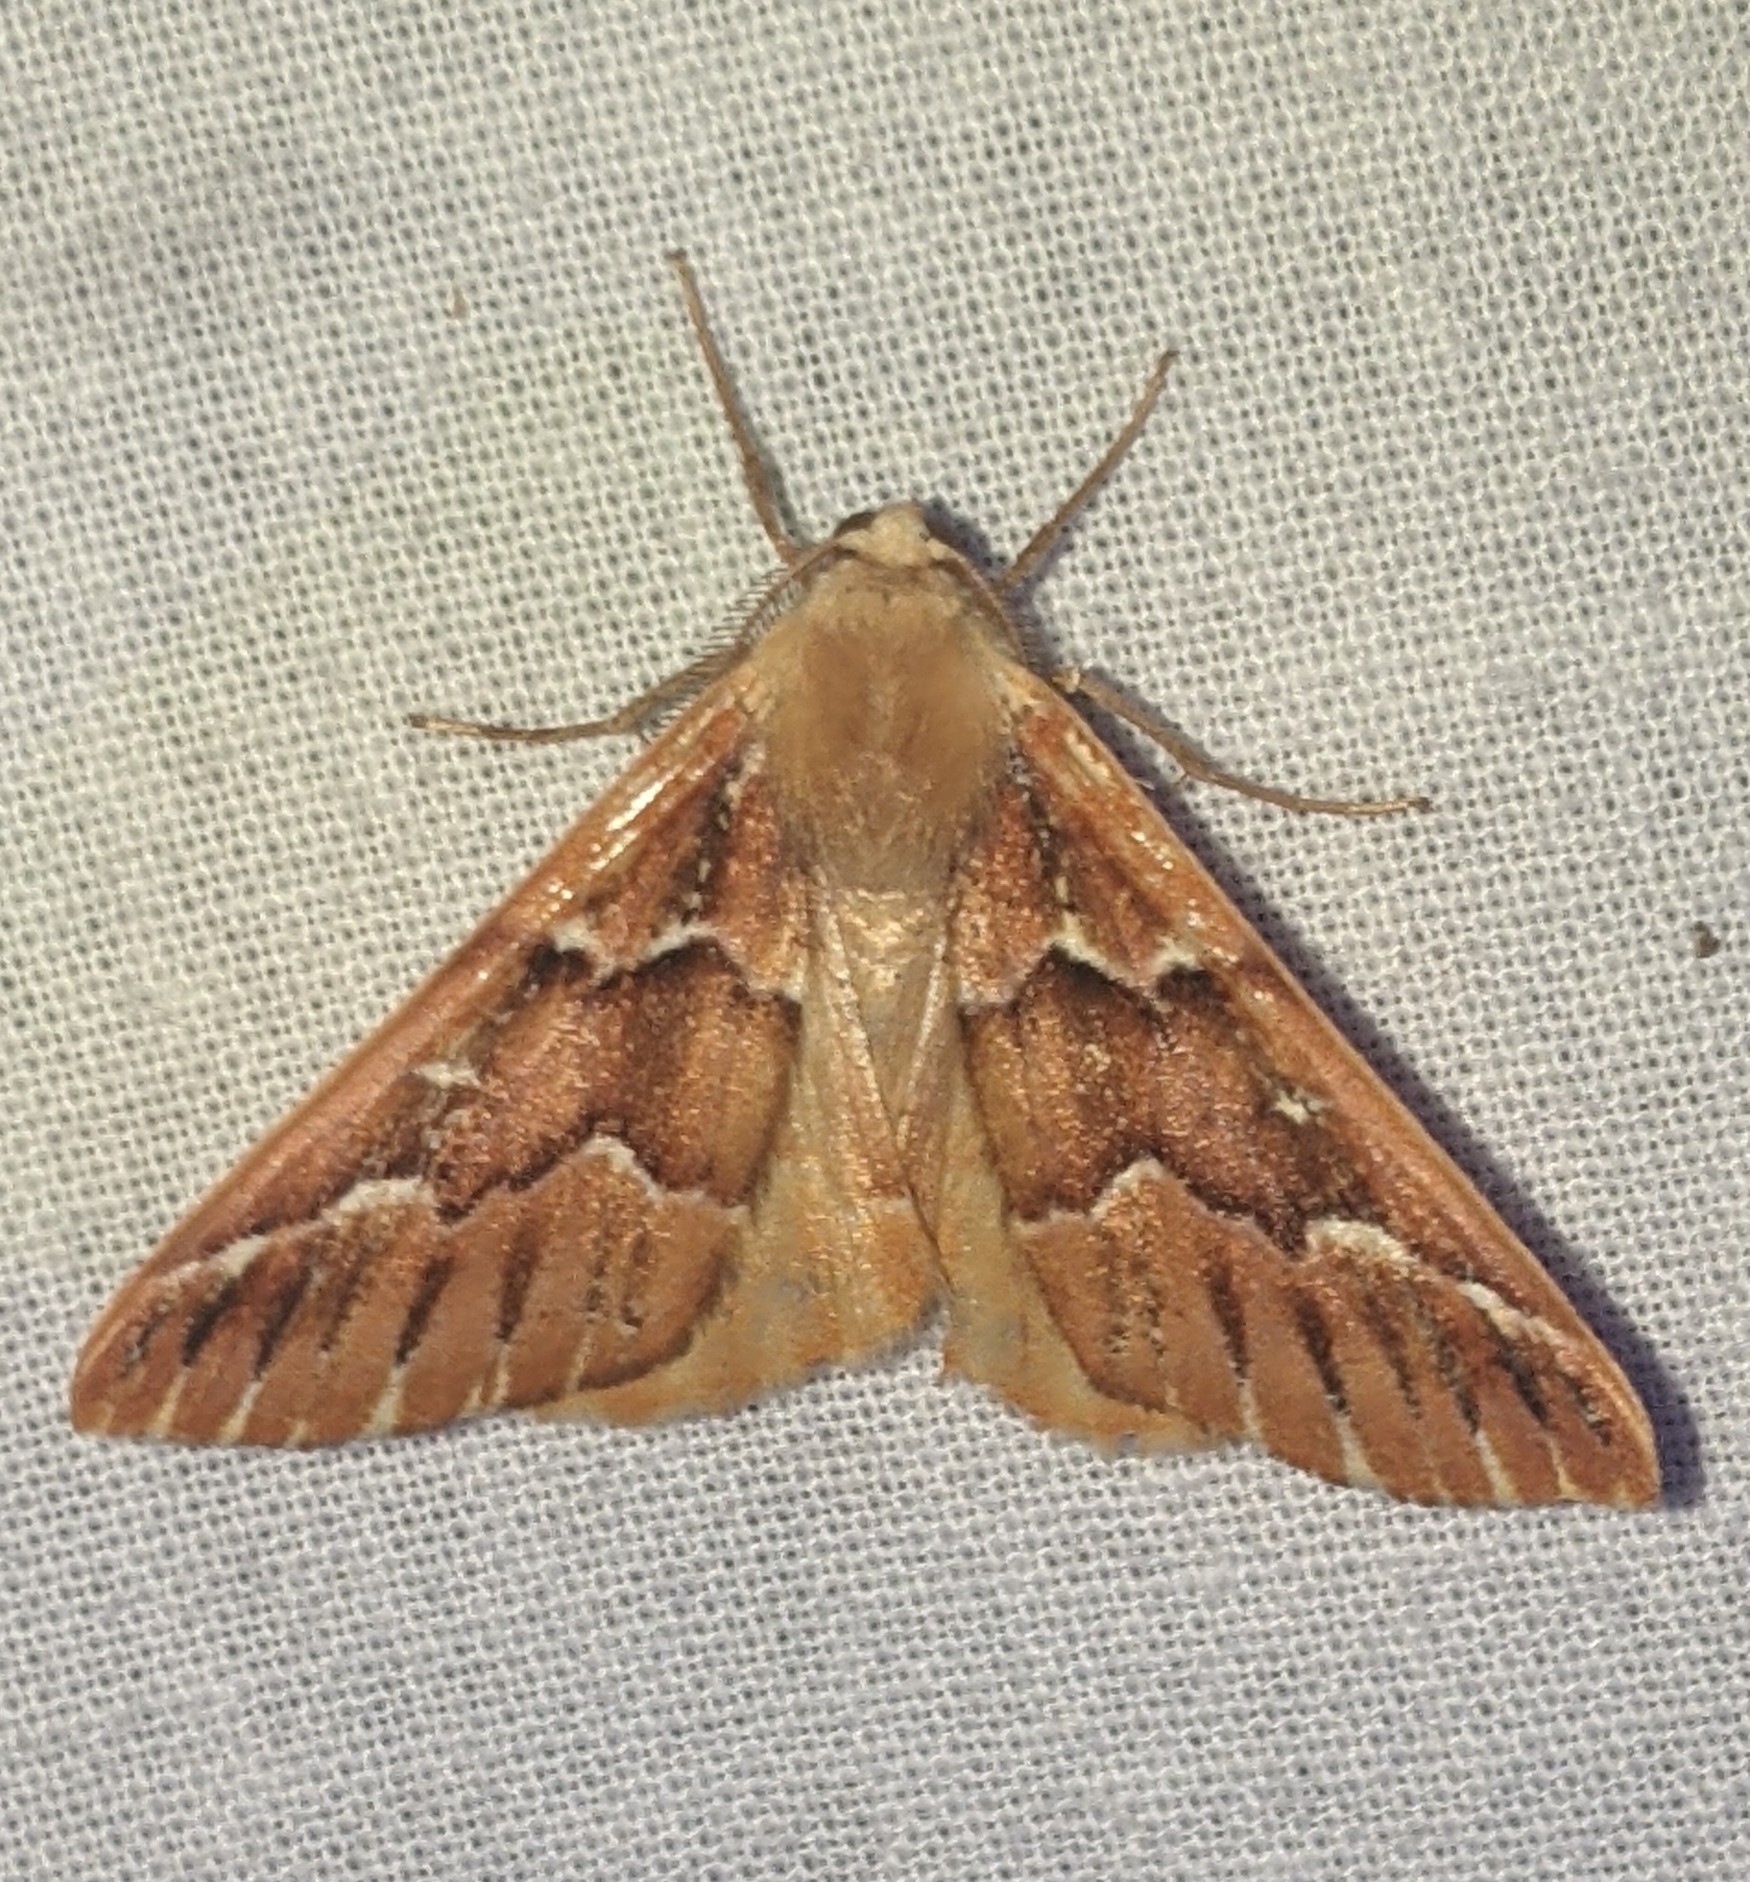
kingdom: Animalia
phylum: Arthropoda
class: Insecta
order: Lepidoptera
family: Geometridae
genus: Caripeta
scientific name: Caripeta aequaliaria
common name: Red girdle moth
